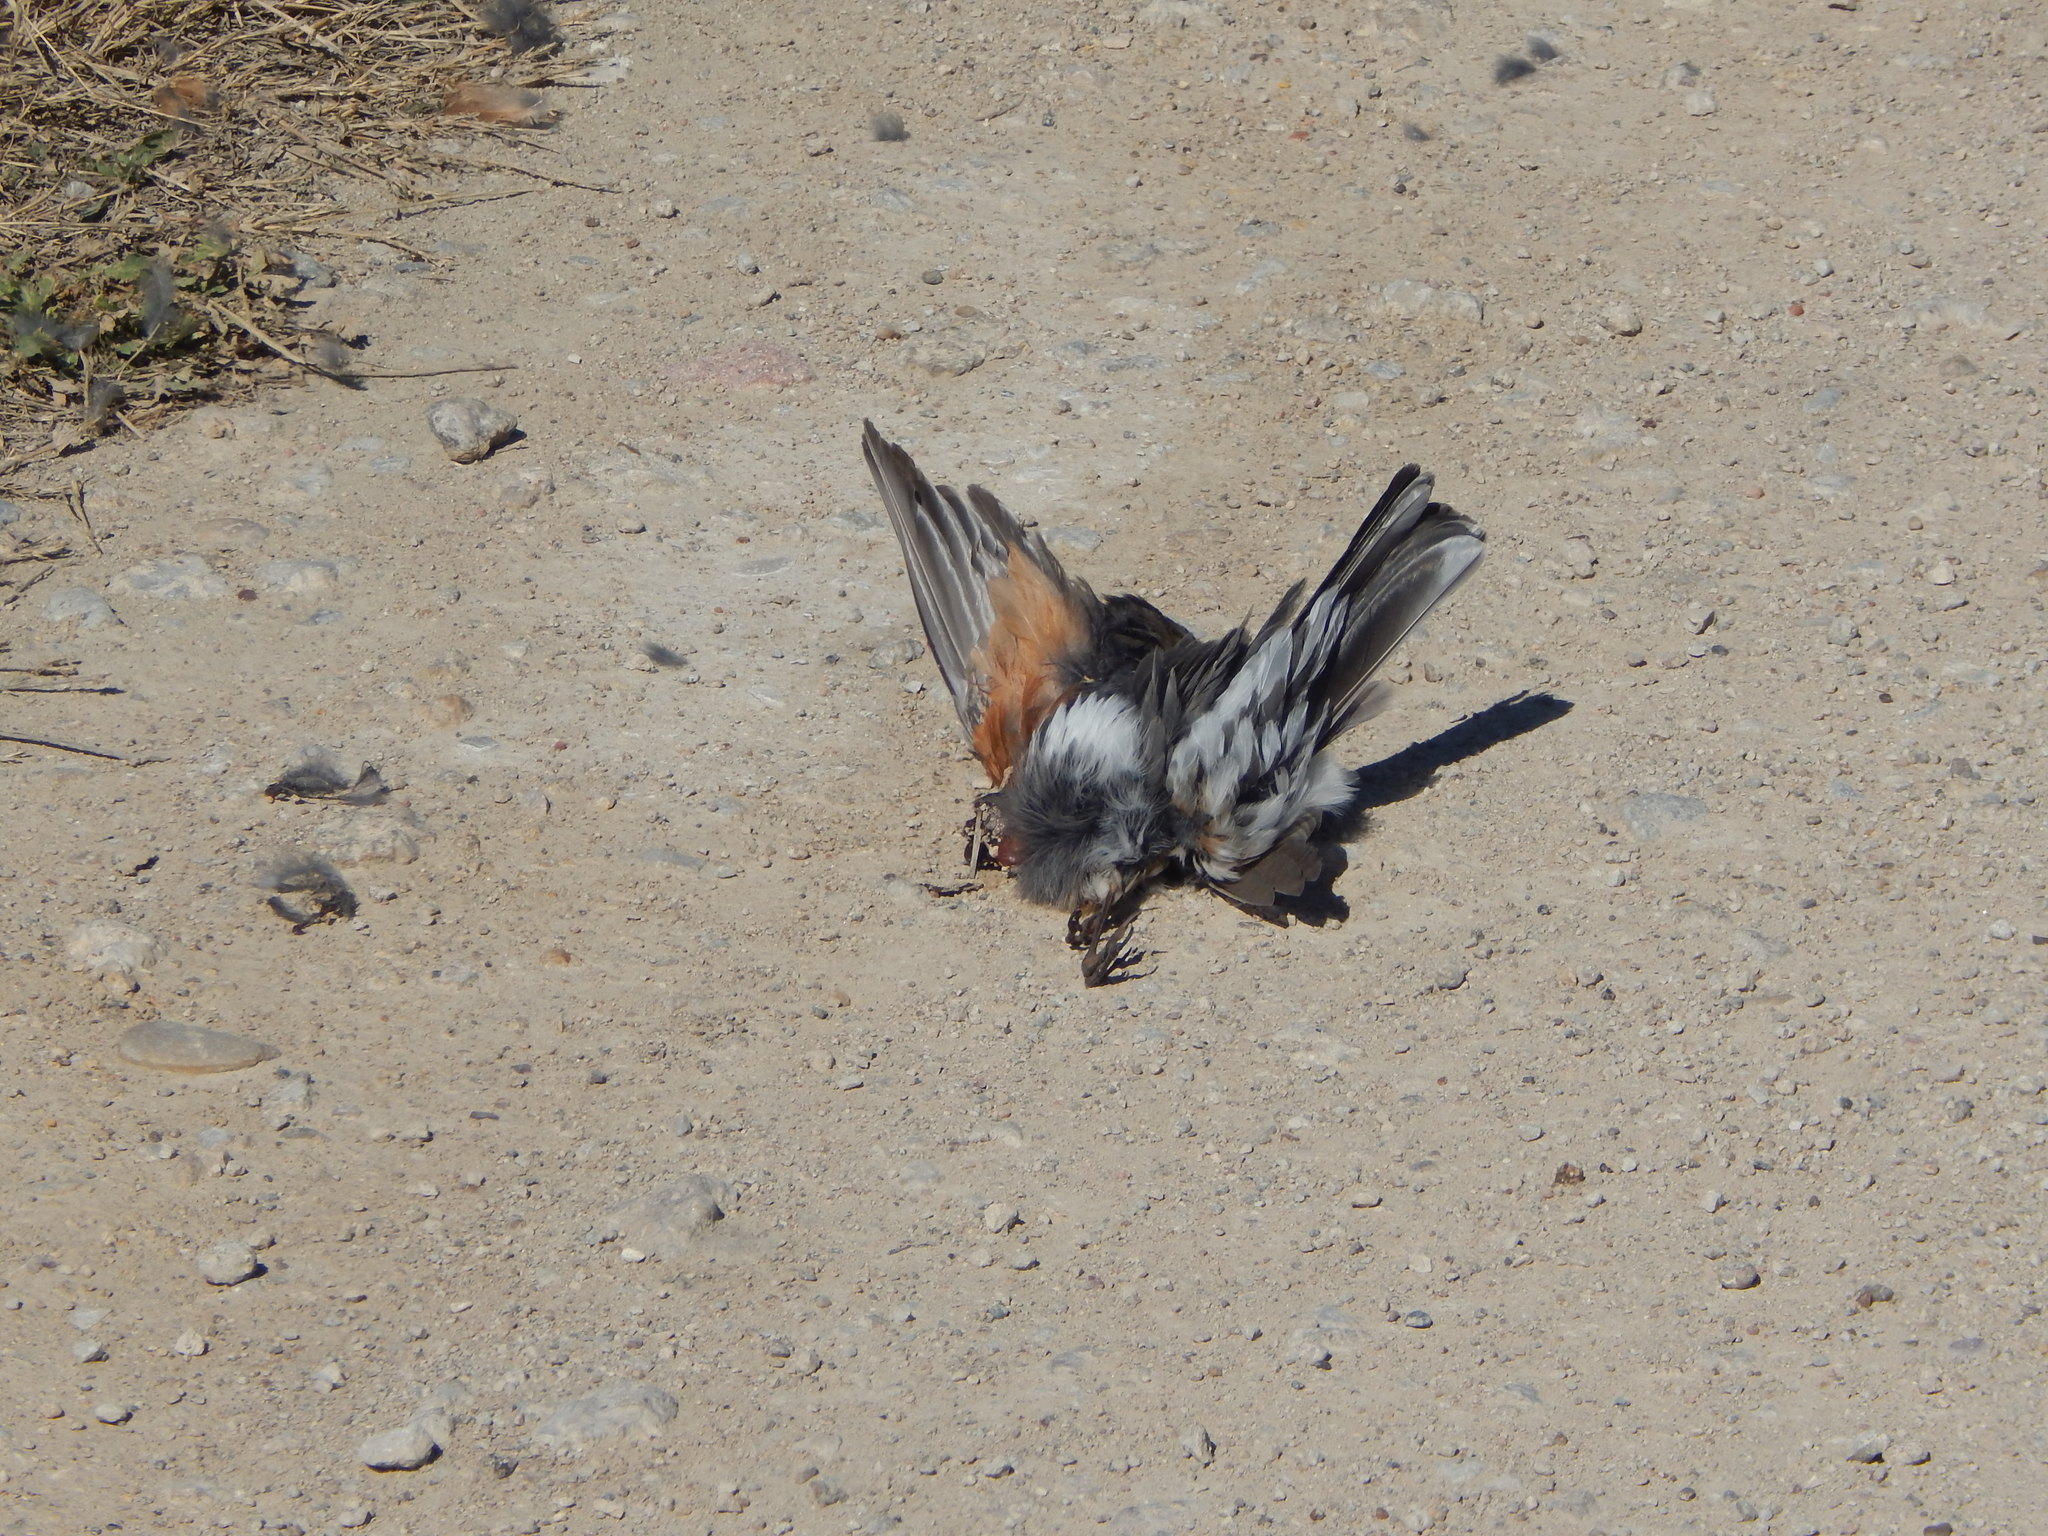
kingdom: Animalia
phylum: Chordata
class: Aves
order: Passeriformes
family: Turdidae
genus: Turdus
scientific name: Turdus migratorius
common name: American robin
